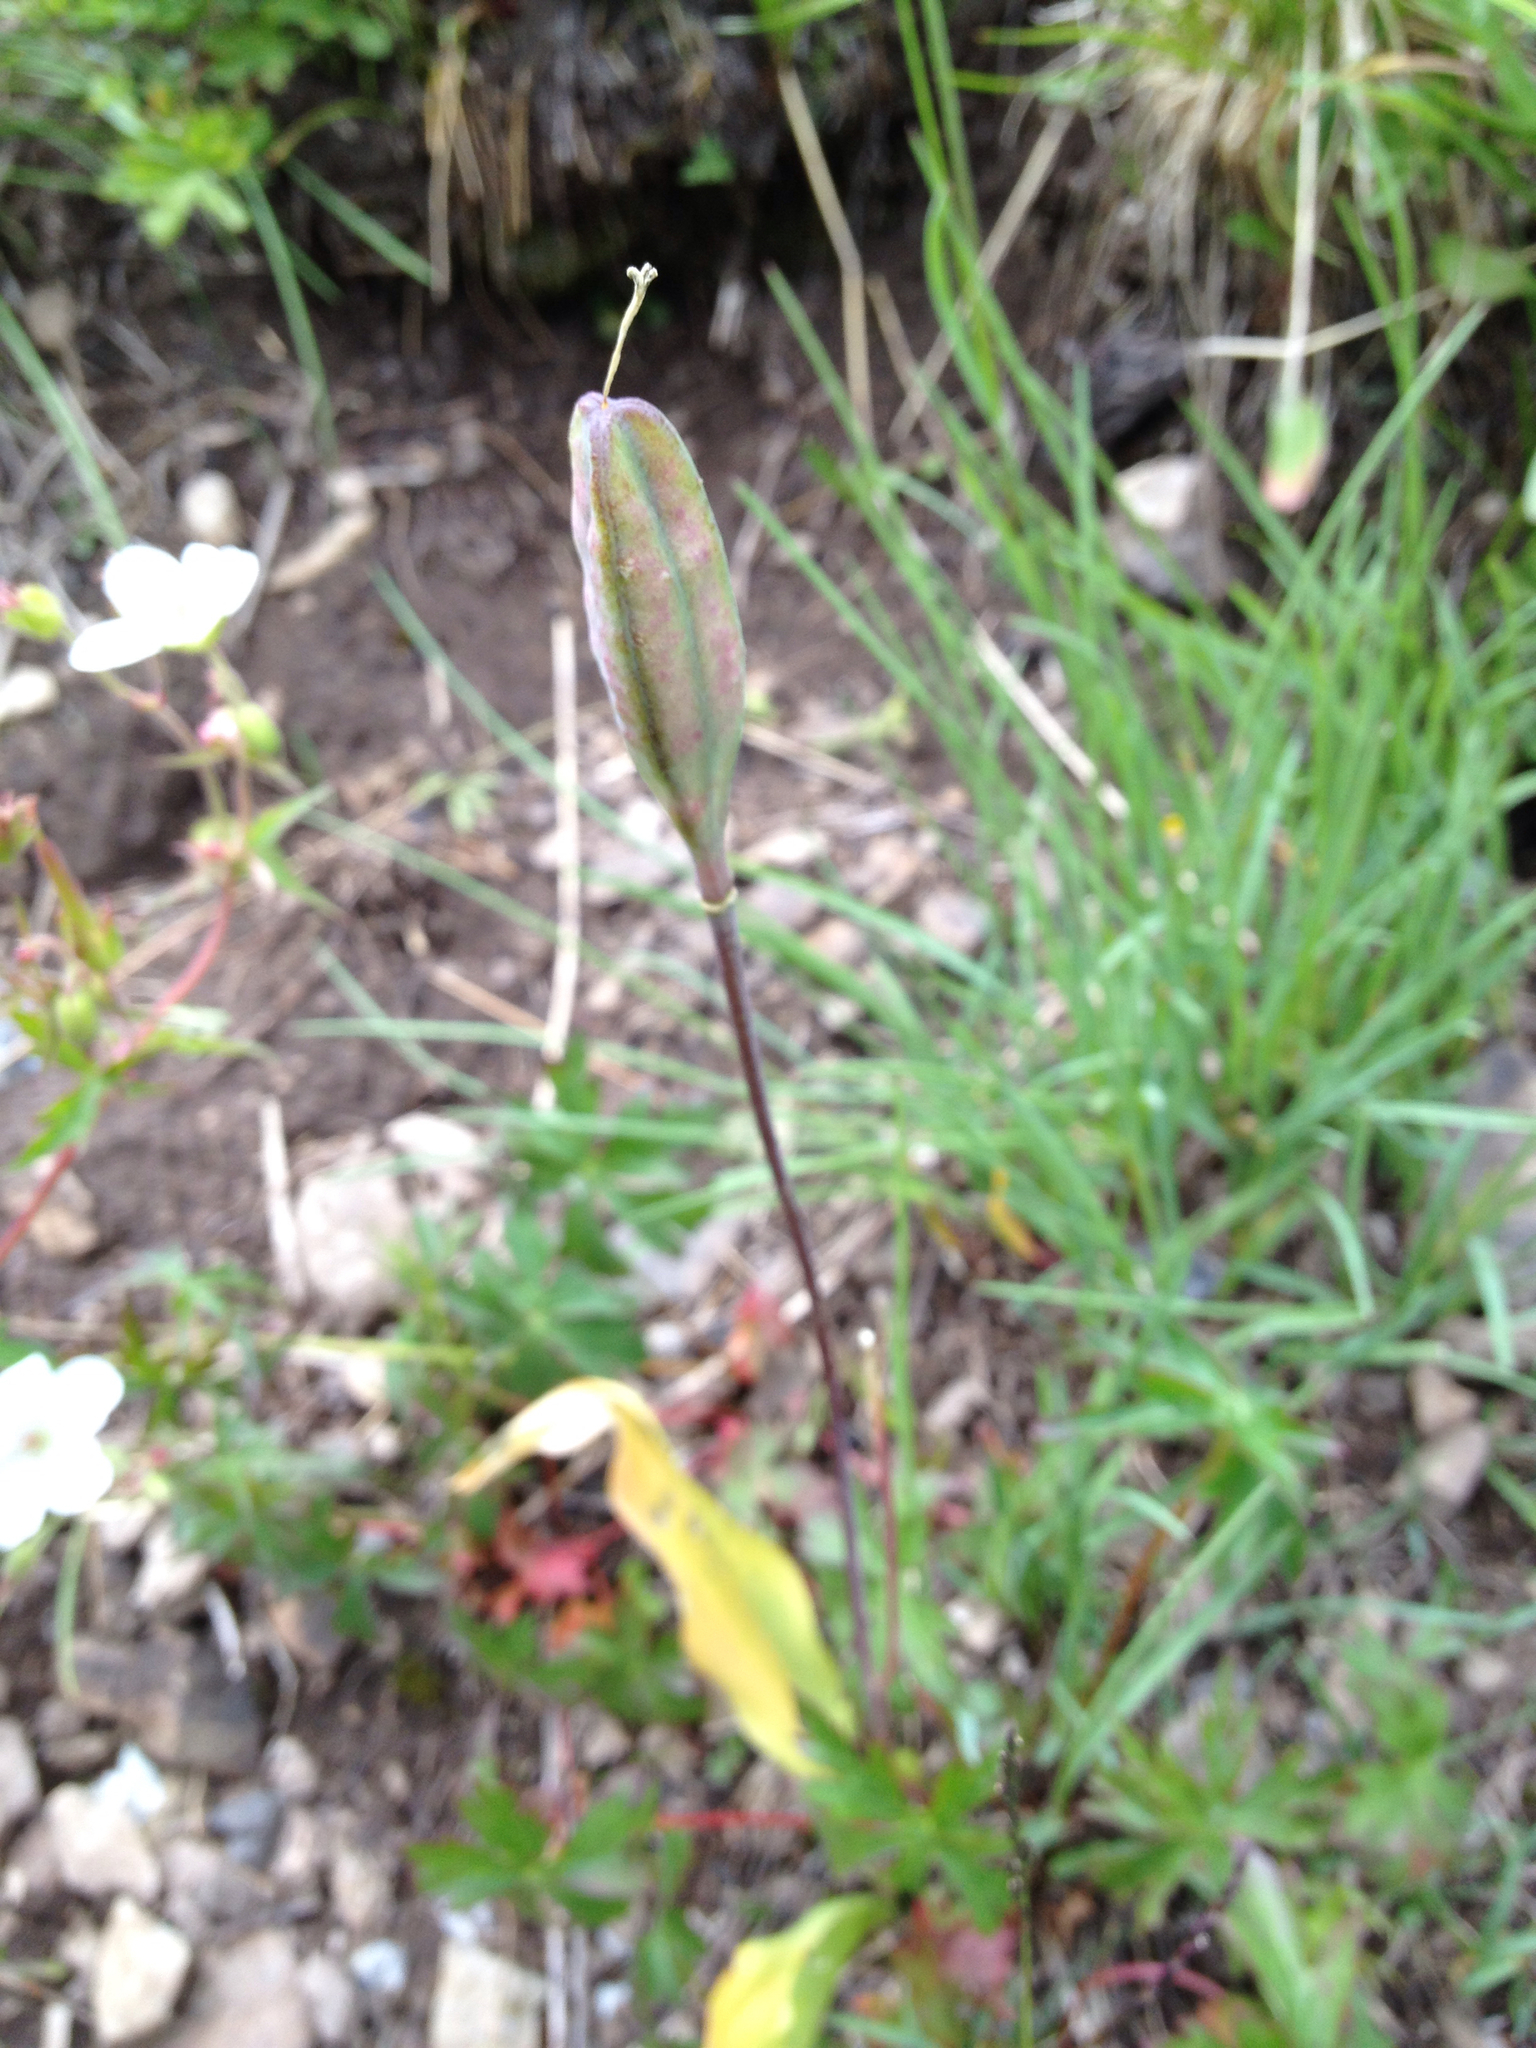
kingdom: Plantae
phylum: Tracheophyta
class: Liliopsida
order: Liliales
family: Liliaceae
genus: Erythronium
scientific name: Erythronium grandiflorum
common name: Avalanche-lily
